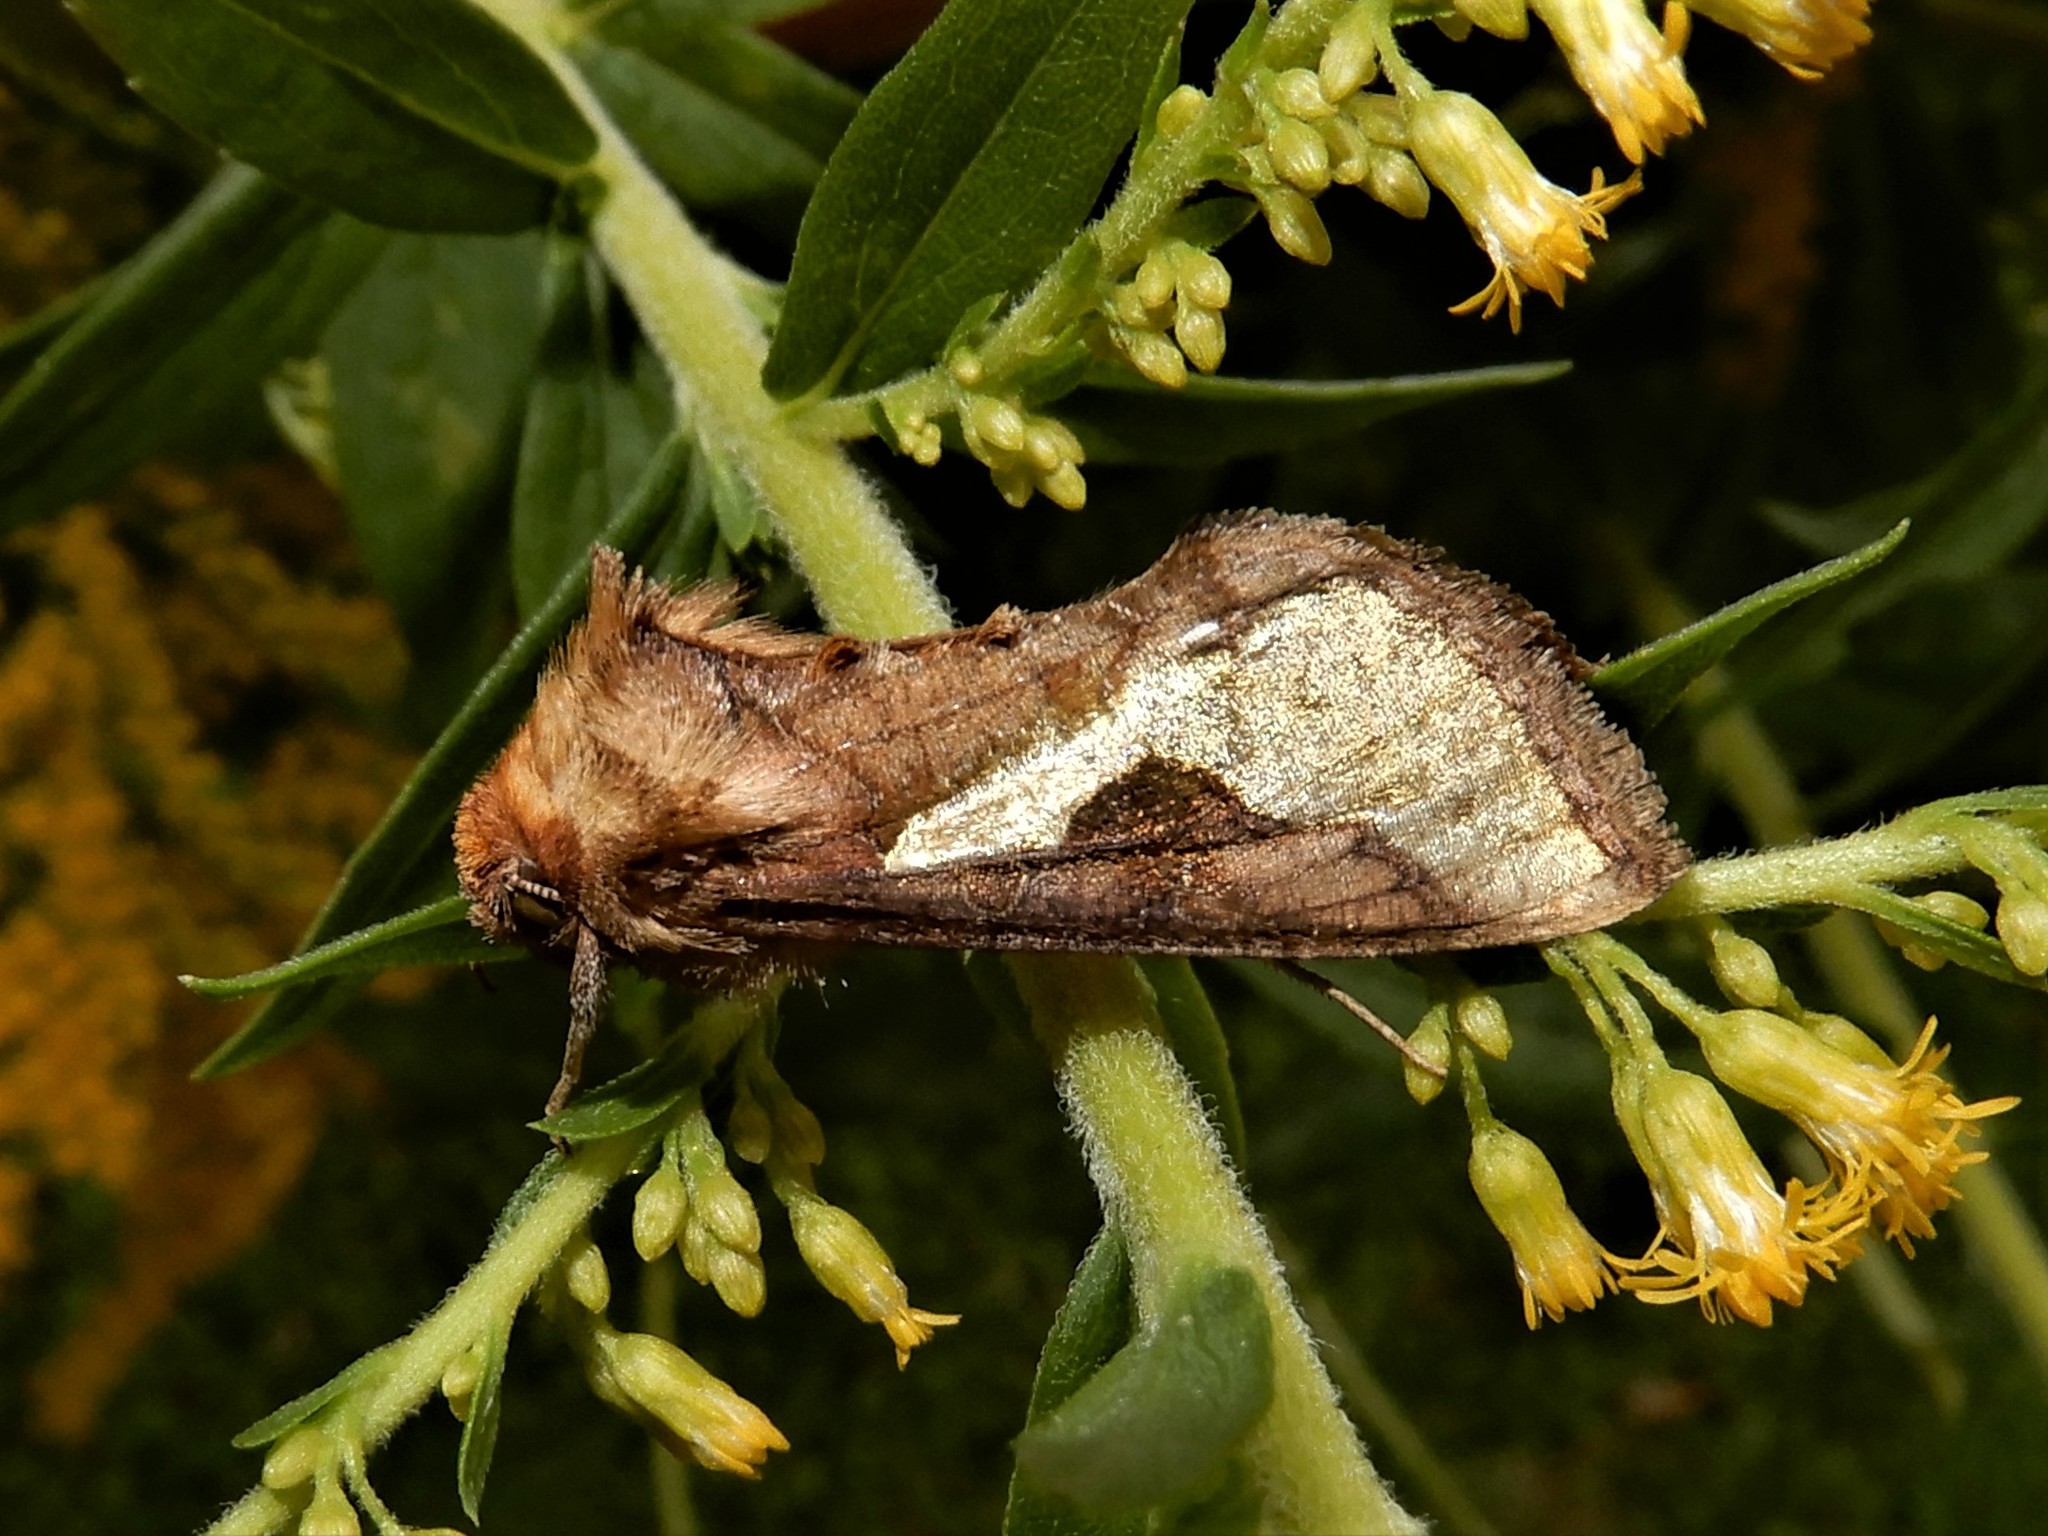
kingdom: Animalia
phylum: Arthropoda
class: Insecta
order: Lepidoptera
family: Noctuidae
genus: Thysanoplusia
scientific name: Thysanoplusia orichalcea
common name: Slender burnished brass, golden plusia
